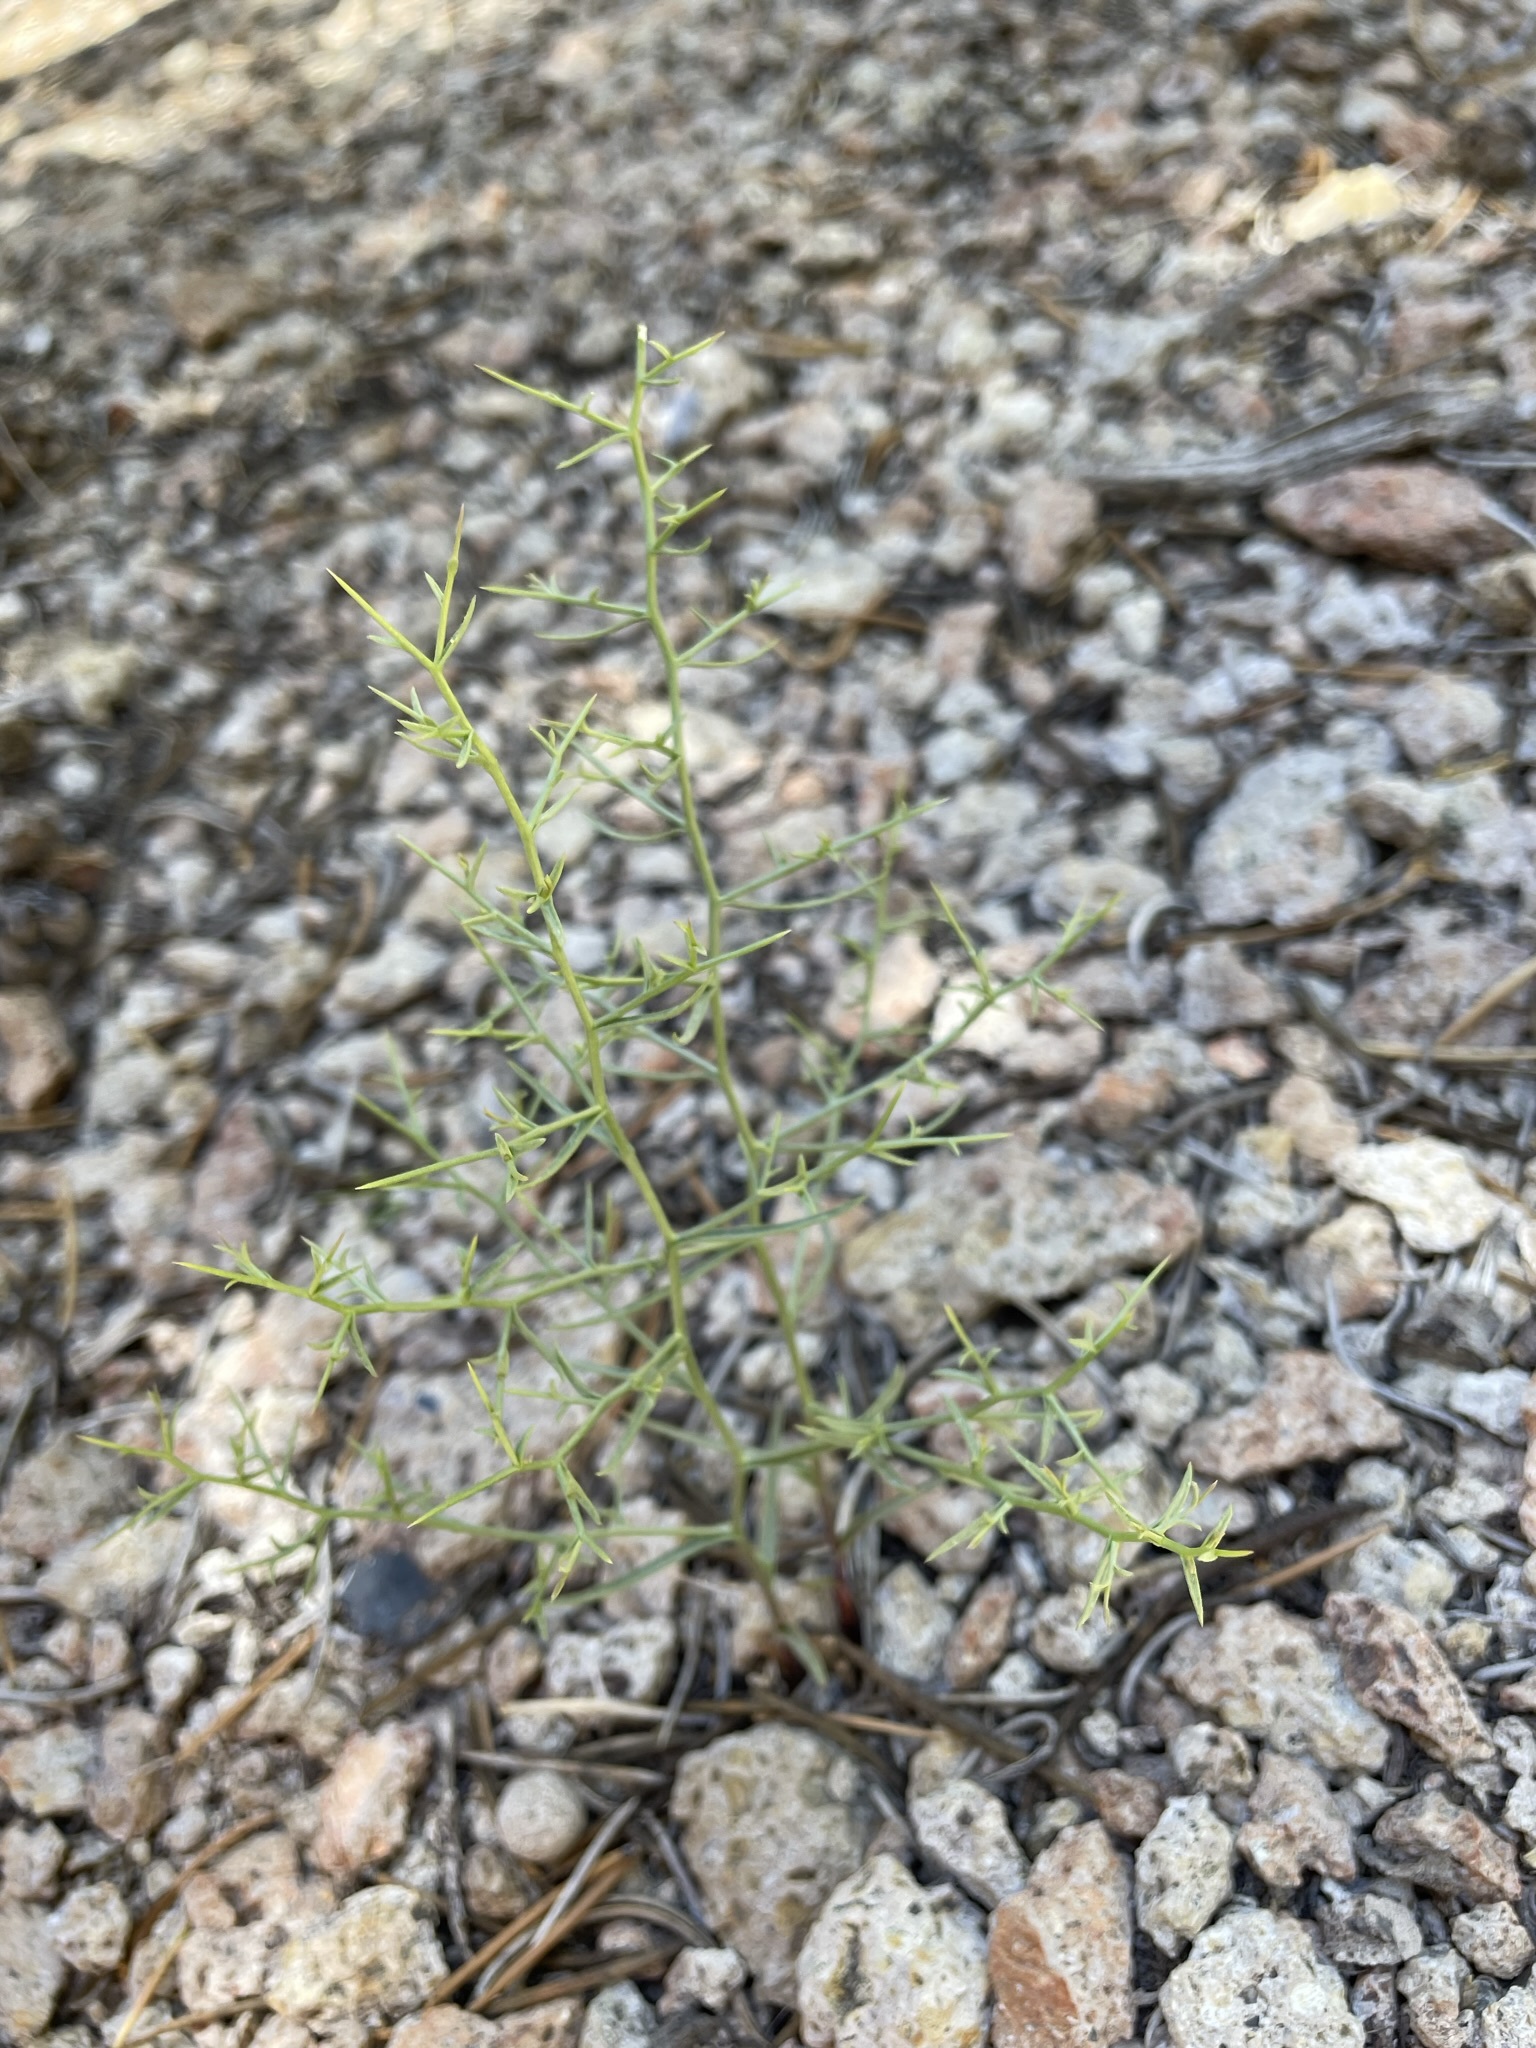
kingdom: Plantae
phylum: Tracheophyta
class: Magnoliopsida
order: Asterales
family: Asteraceae
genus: Pleiacanthus
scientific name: Pleiacanthus spinosus
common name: Thorny skeleton-weed
